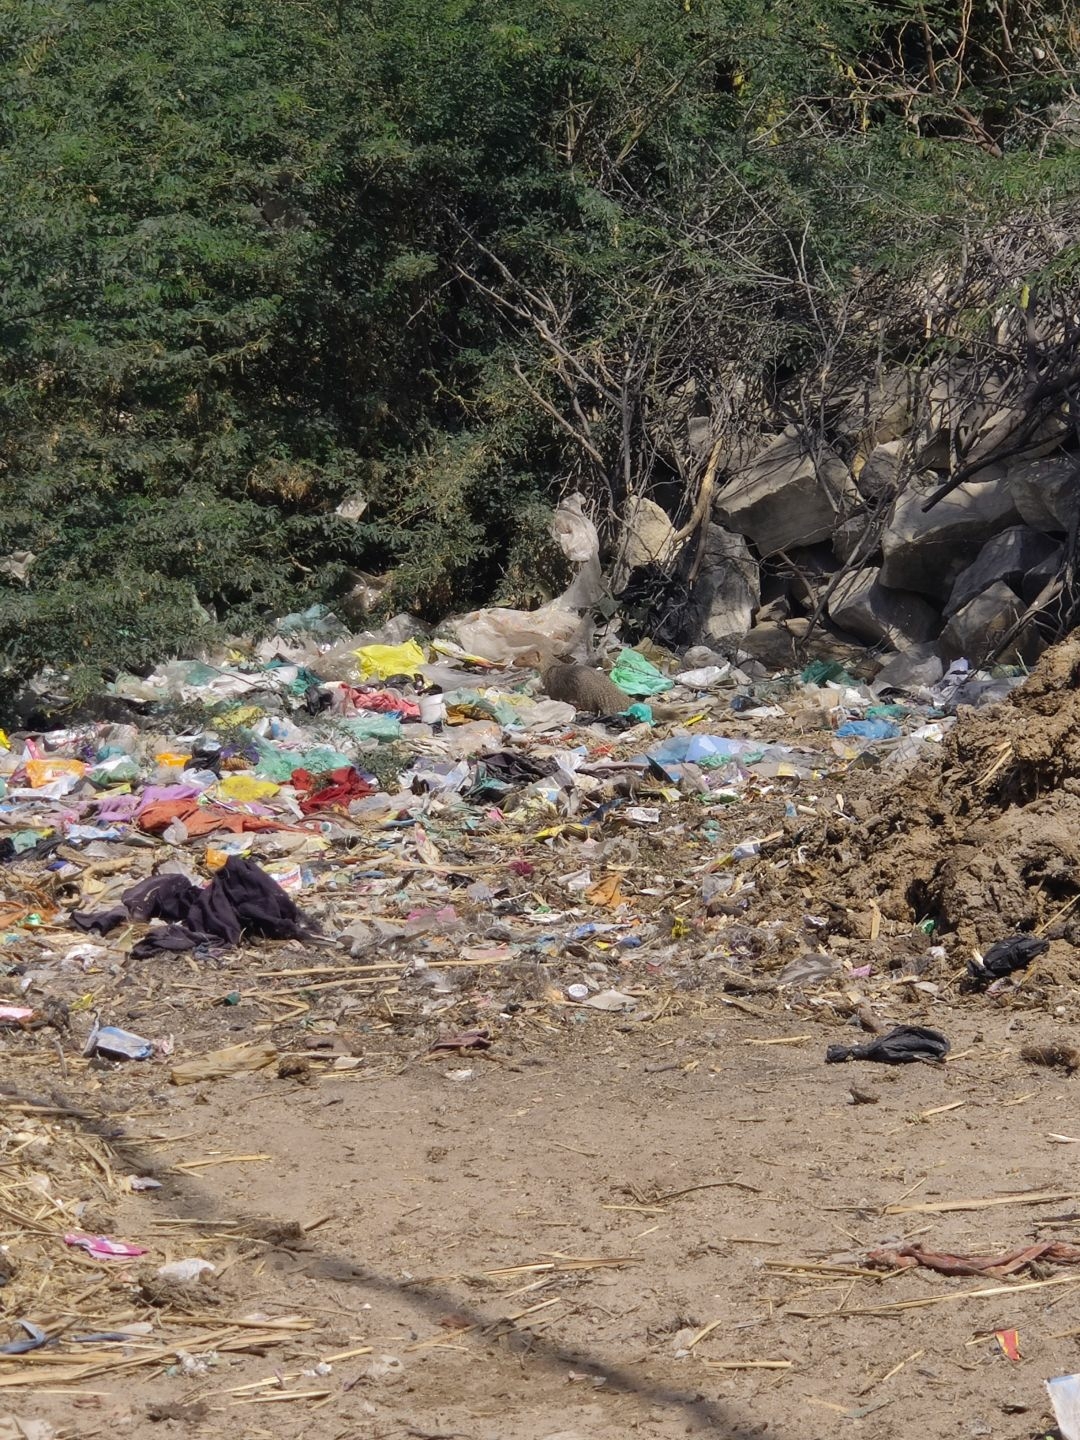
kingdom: Animalia
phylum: Chordata
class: Mammalia
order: Carnivora
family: Herpestidae
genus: Herpestes
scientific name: Herpestes edwardsi
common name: Indian gray mongoose
